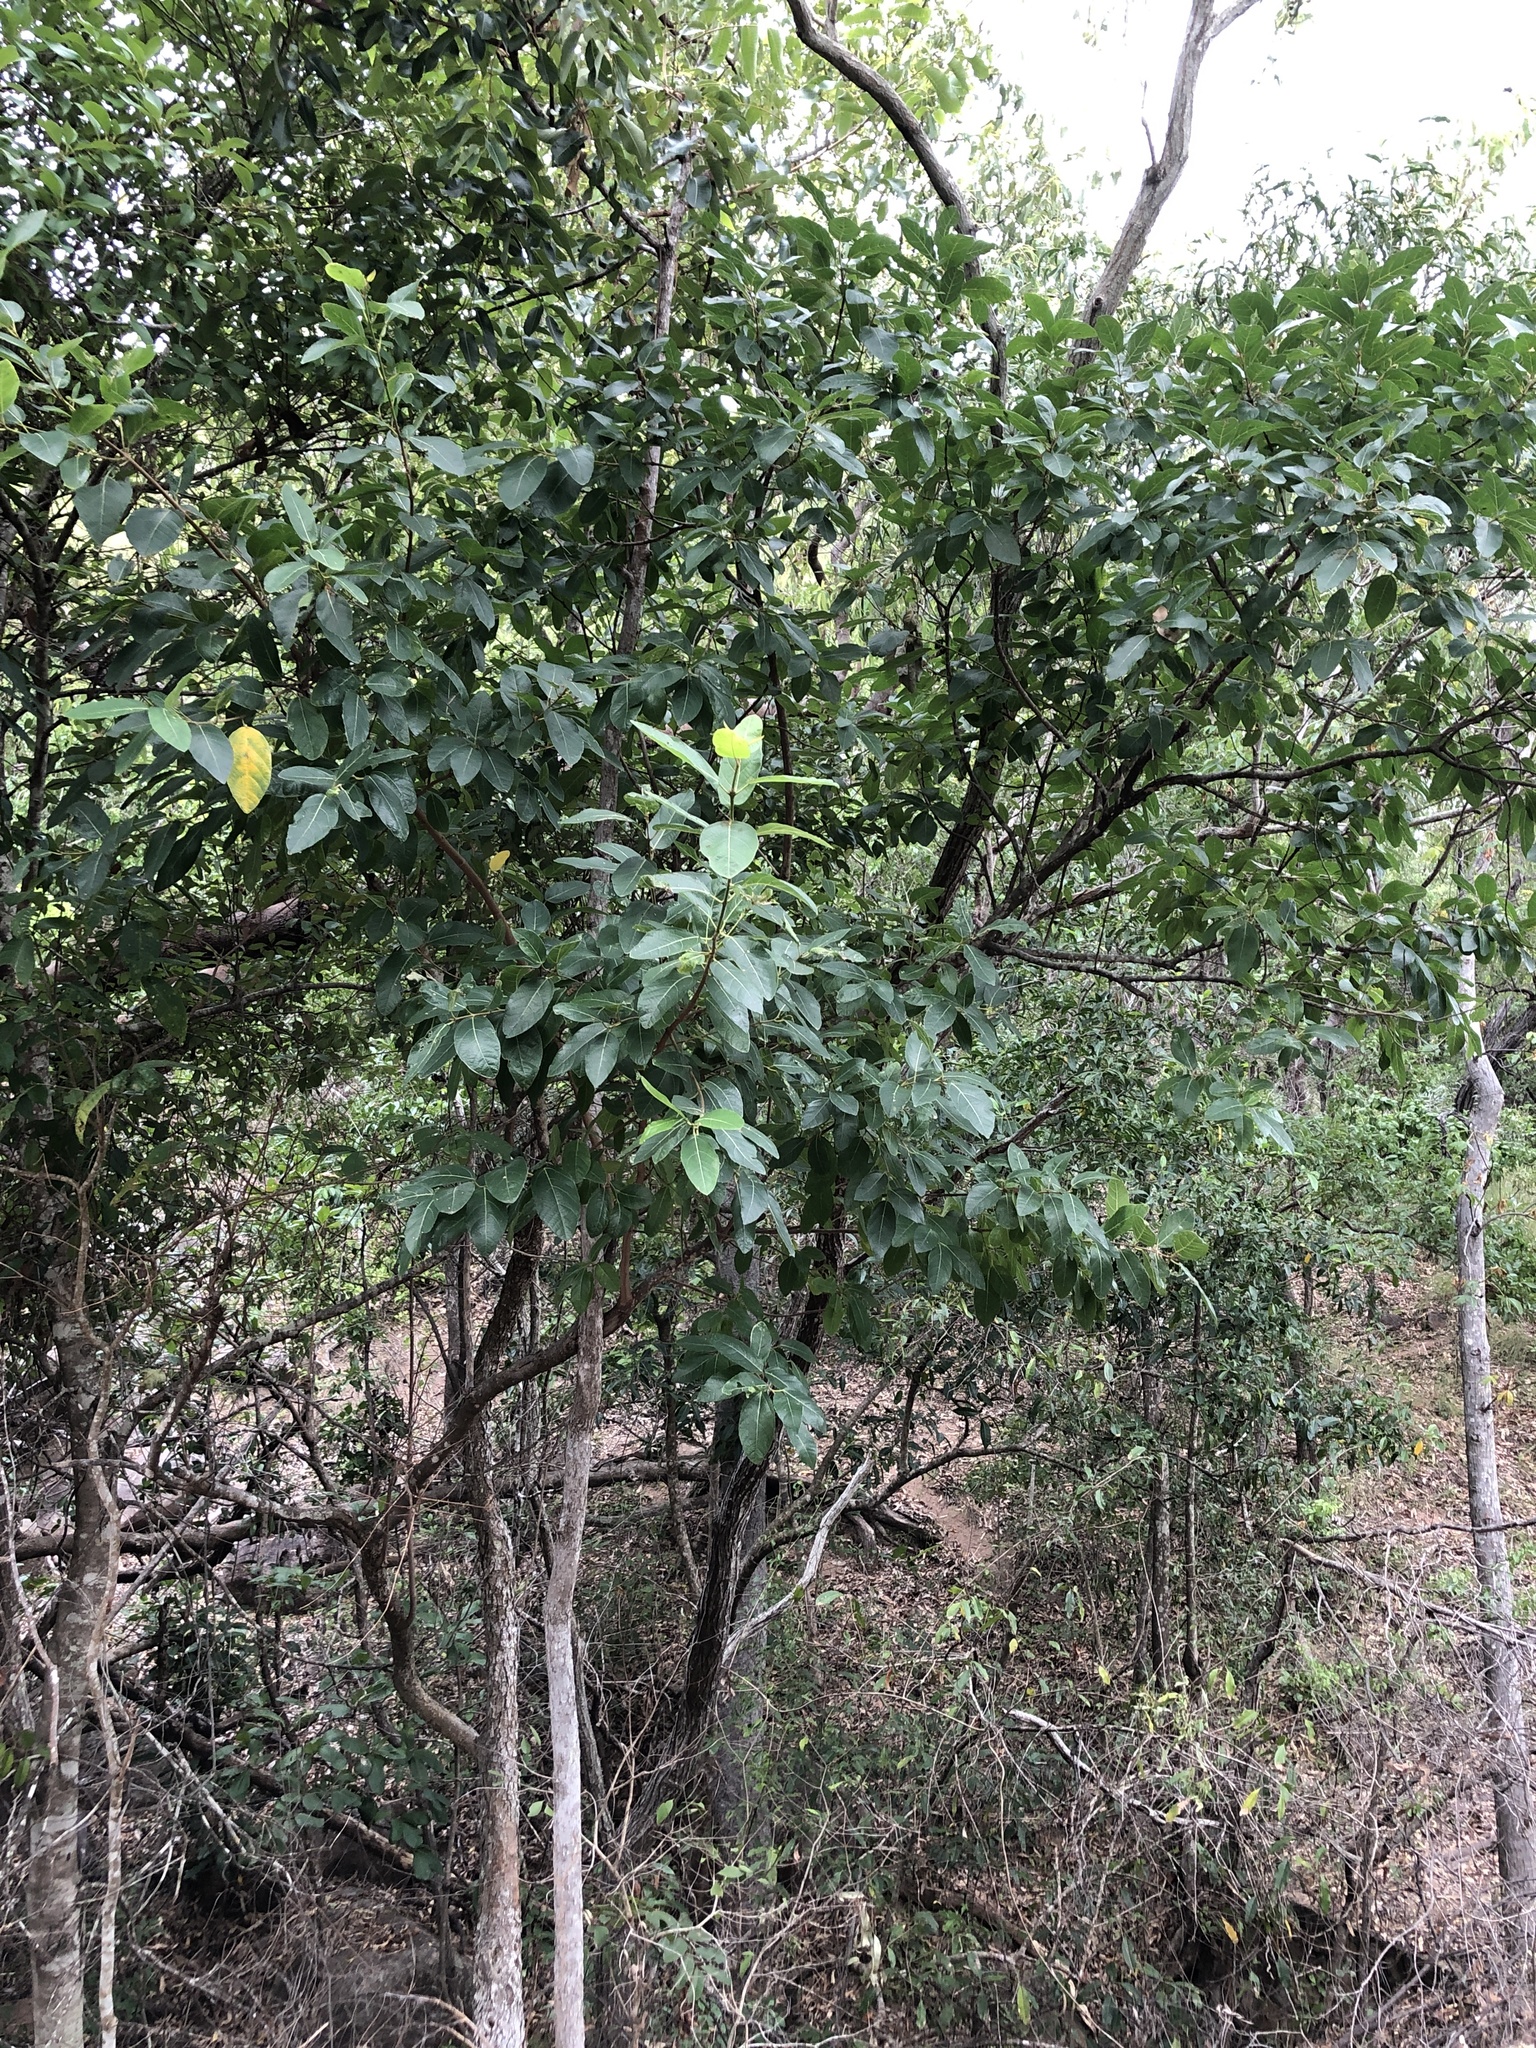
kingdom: Plantae
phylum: Tracheophyta
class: Magnoliopsida
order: Rosales
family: Moraceae
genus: Ficus
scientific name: Ficus opposita
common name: Figwood
